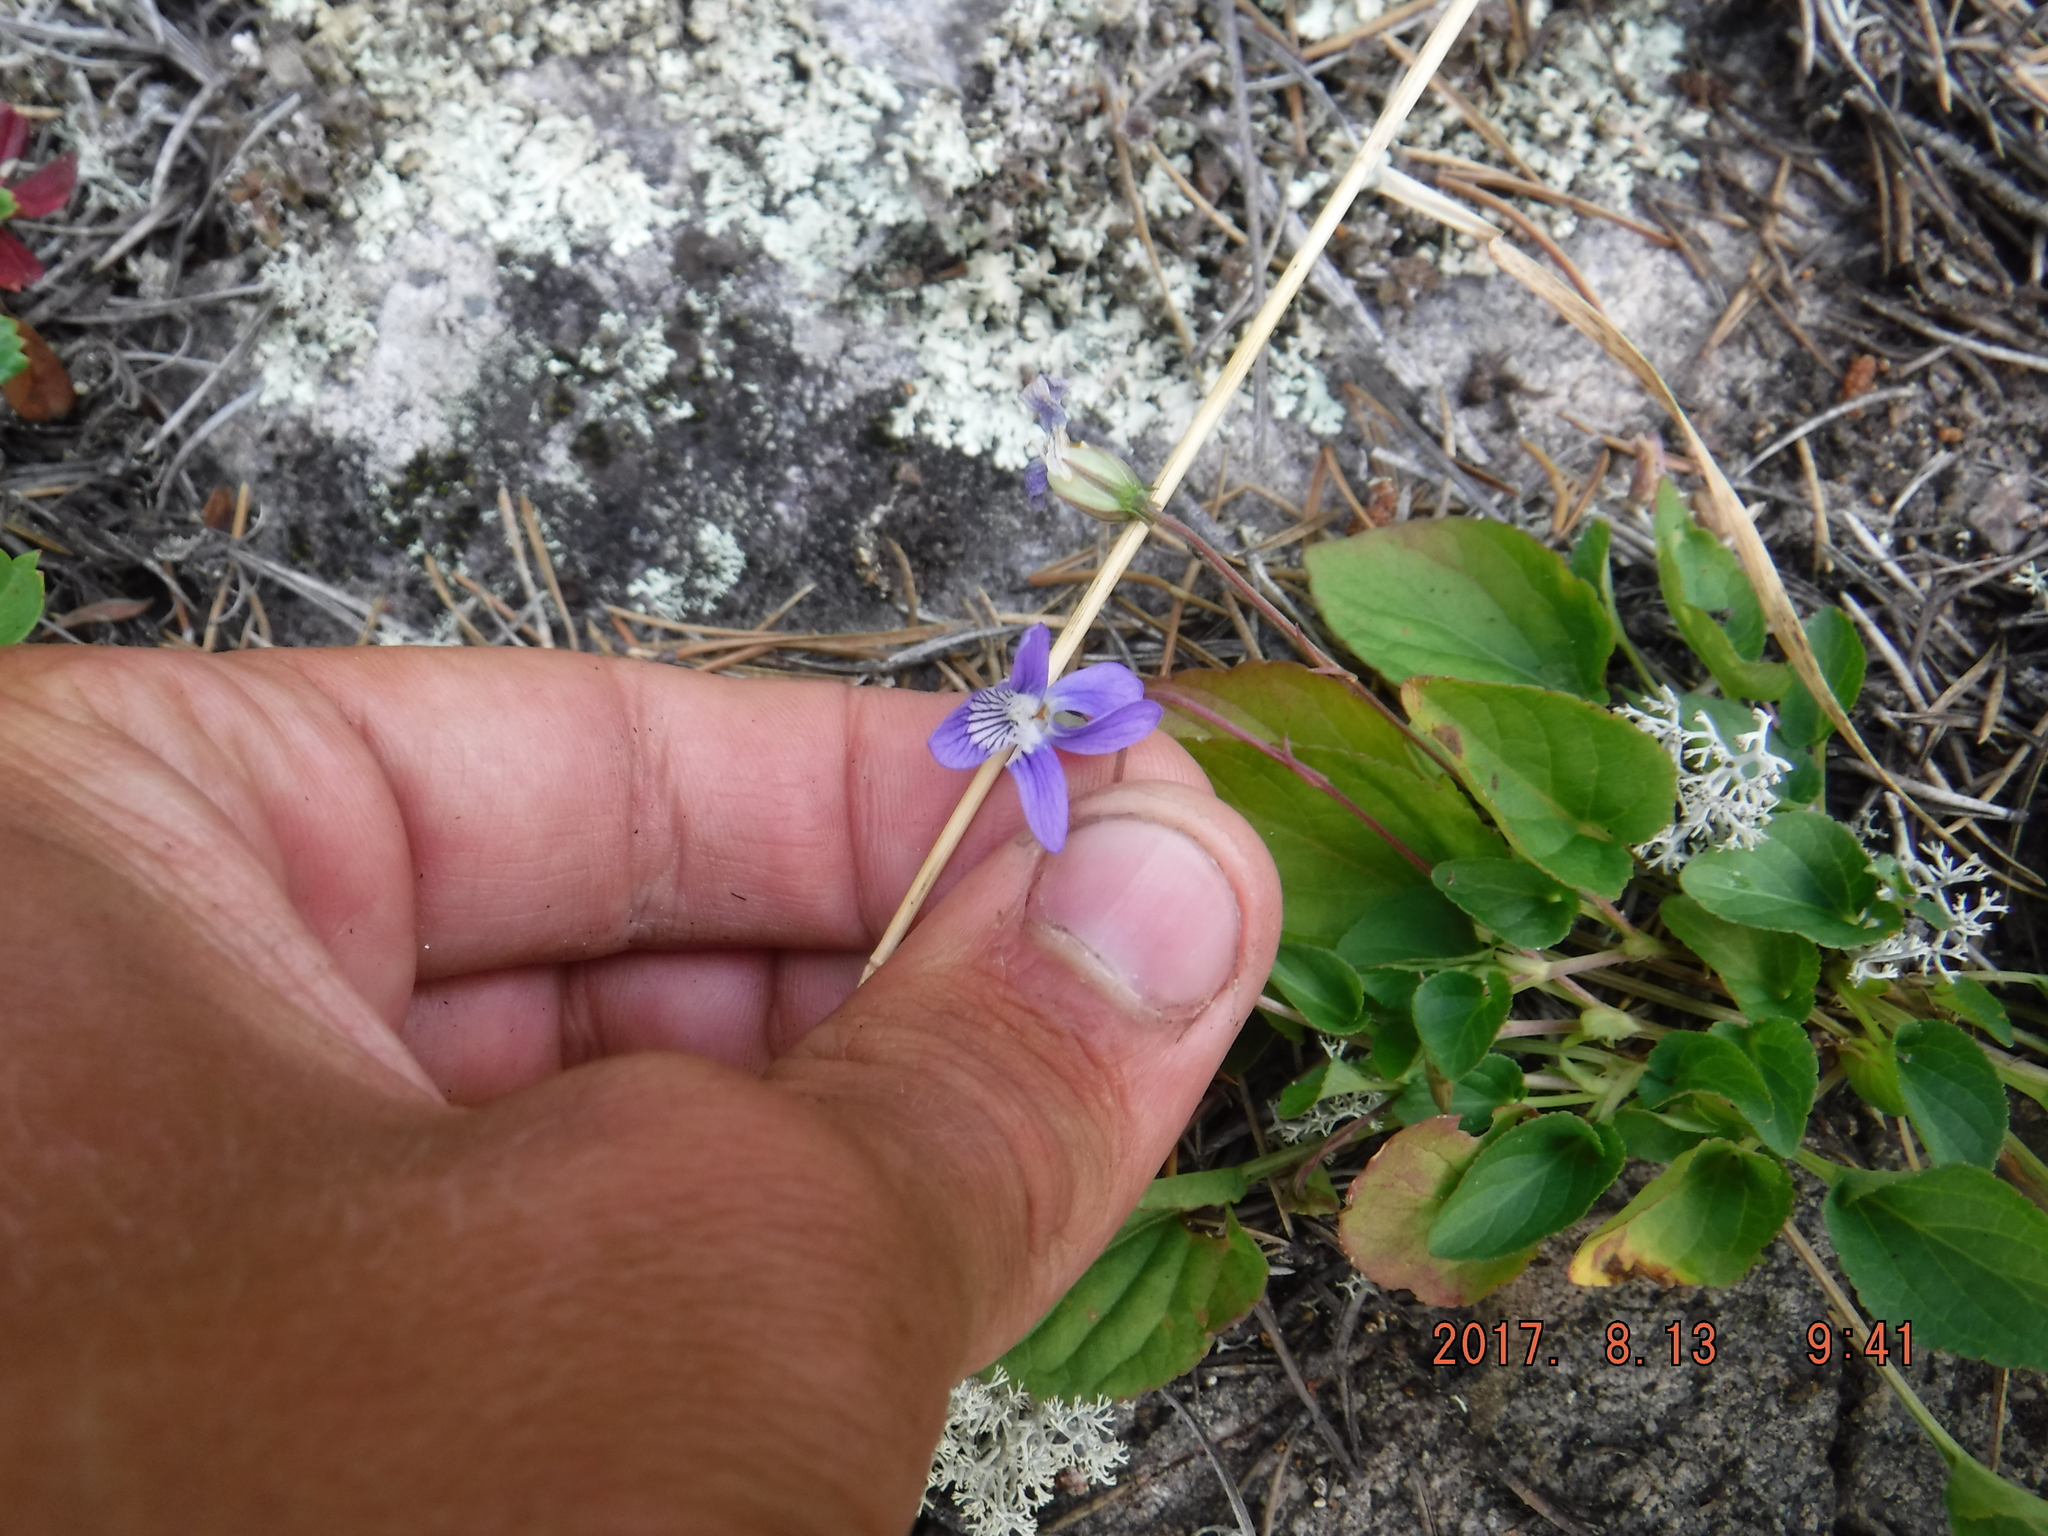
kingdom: Plantae
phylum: Tracheophyta
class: Magnoliopsida
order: Malpighiales
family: Violaceae
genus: Viola
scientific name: Viola adunca
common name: Sand violet
